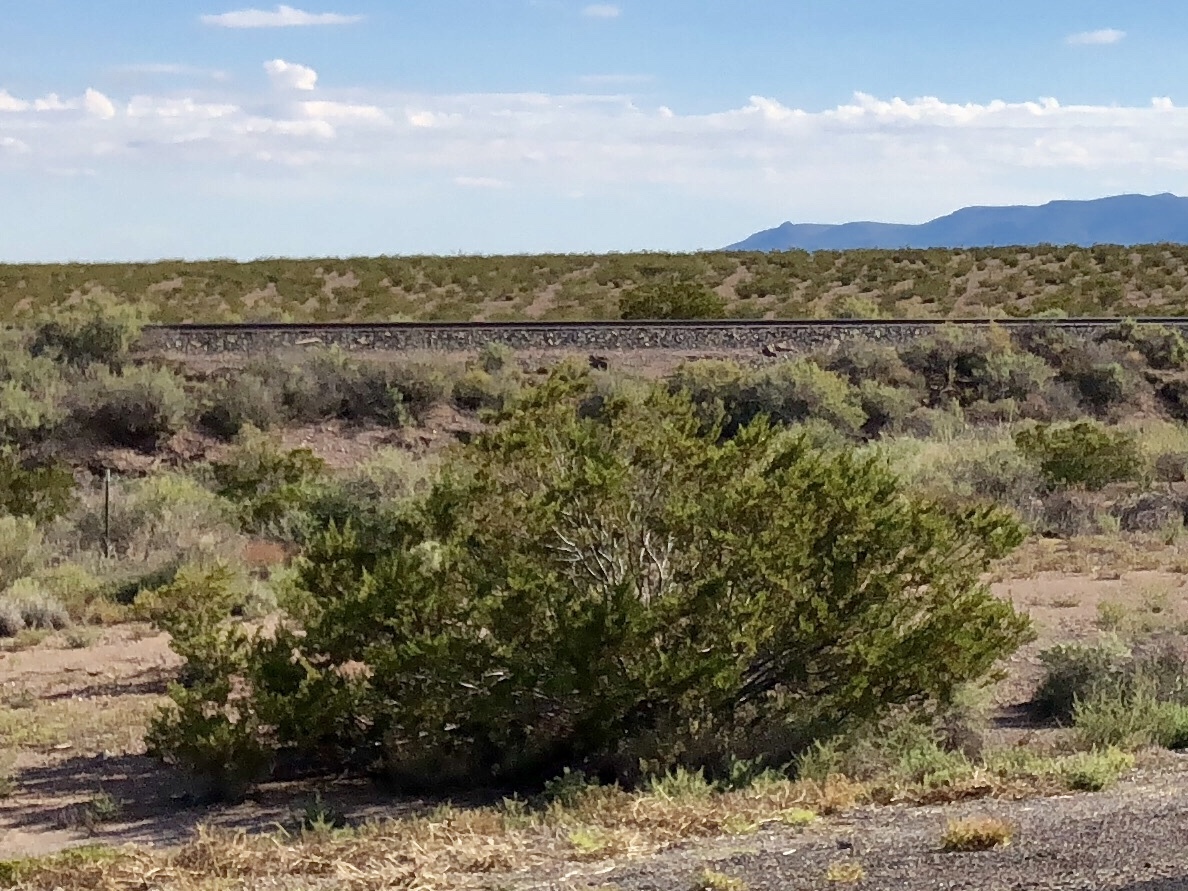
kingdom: Plantae
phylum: Tracheophyta
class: Magnoliopsida
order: Zygophyllales
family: Zygophyllaceae
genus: Larrea
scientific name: Larrea tridentata
